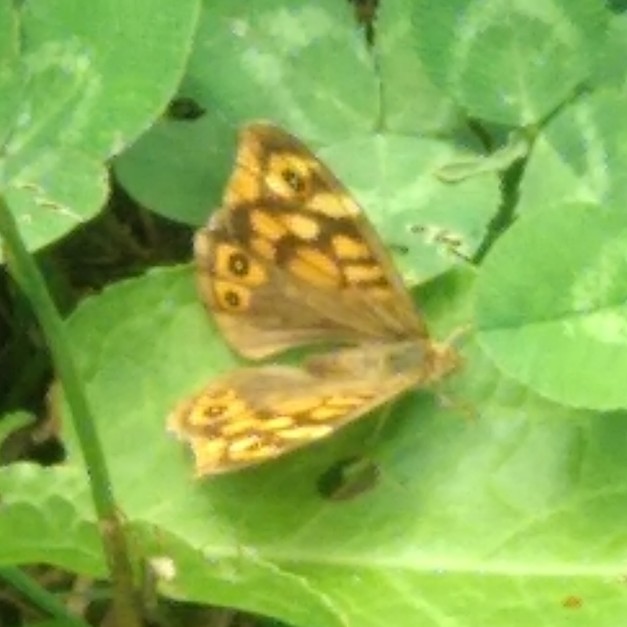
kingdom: Animalia
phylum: Arthropoda
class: Insecta
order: Lepidoptera
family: Nymphalidae
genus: Pararge
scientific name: Pararge aegeria
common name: Speckled wood
